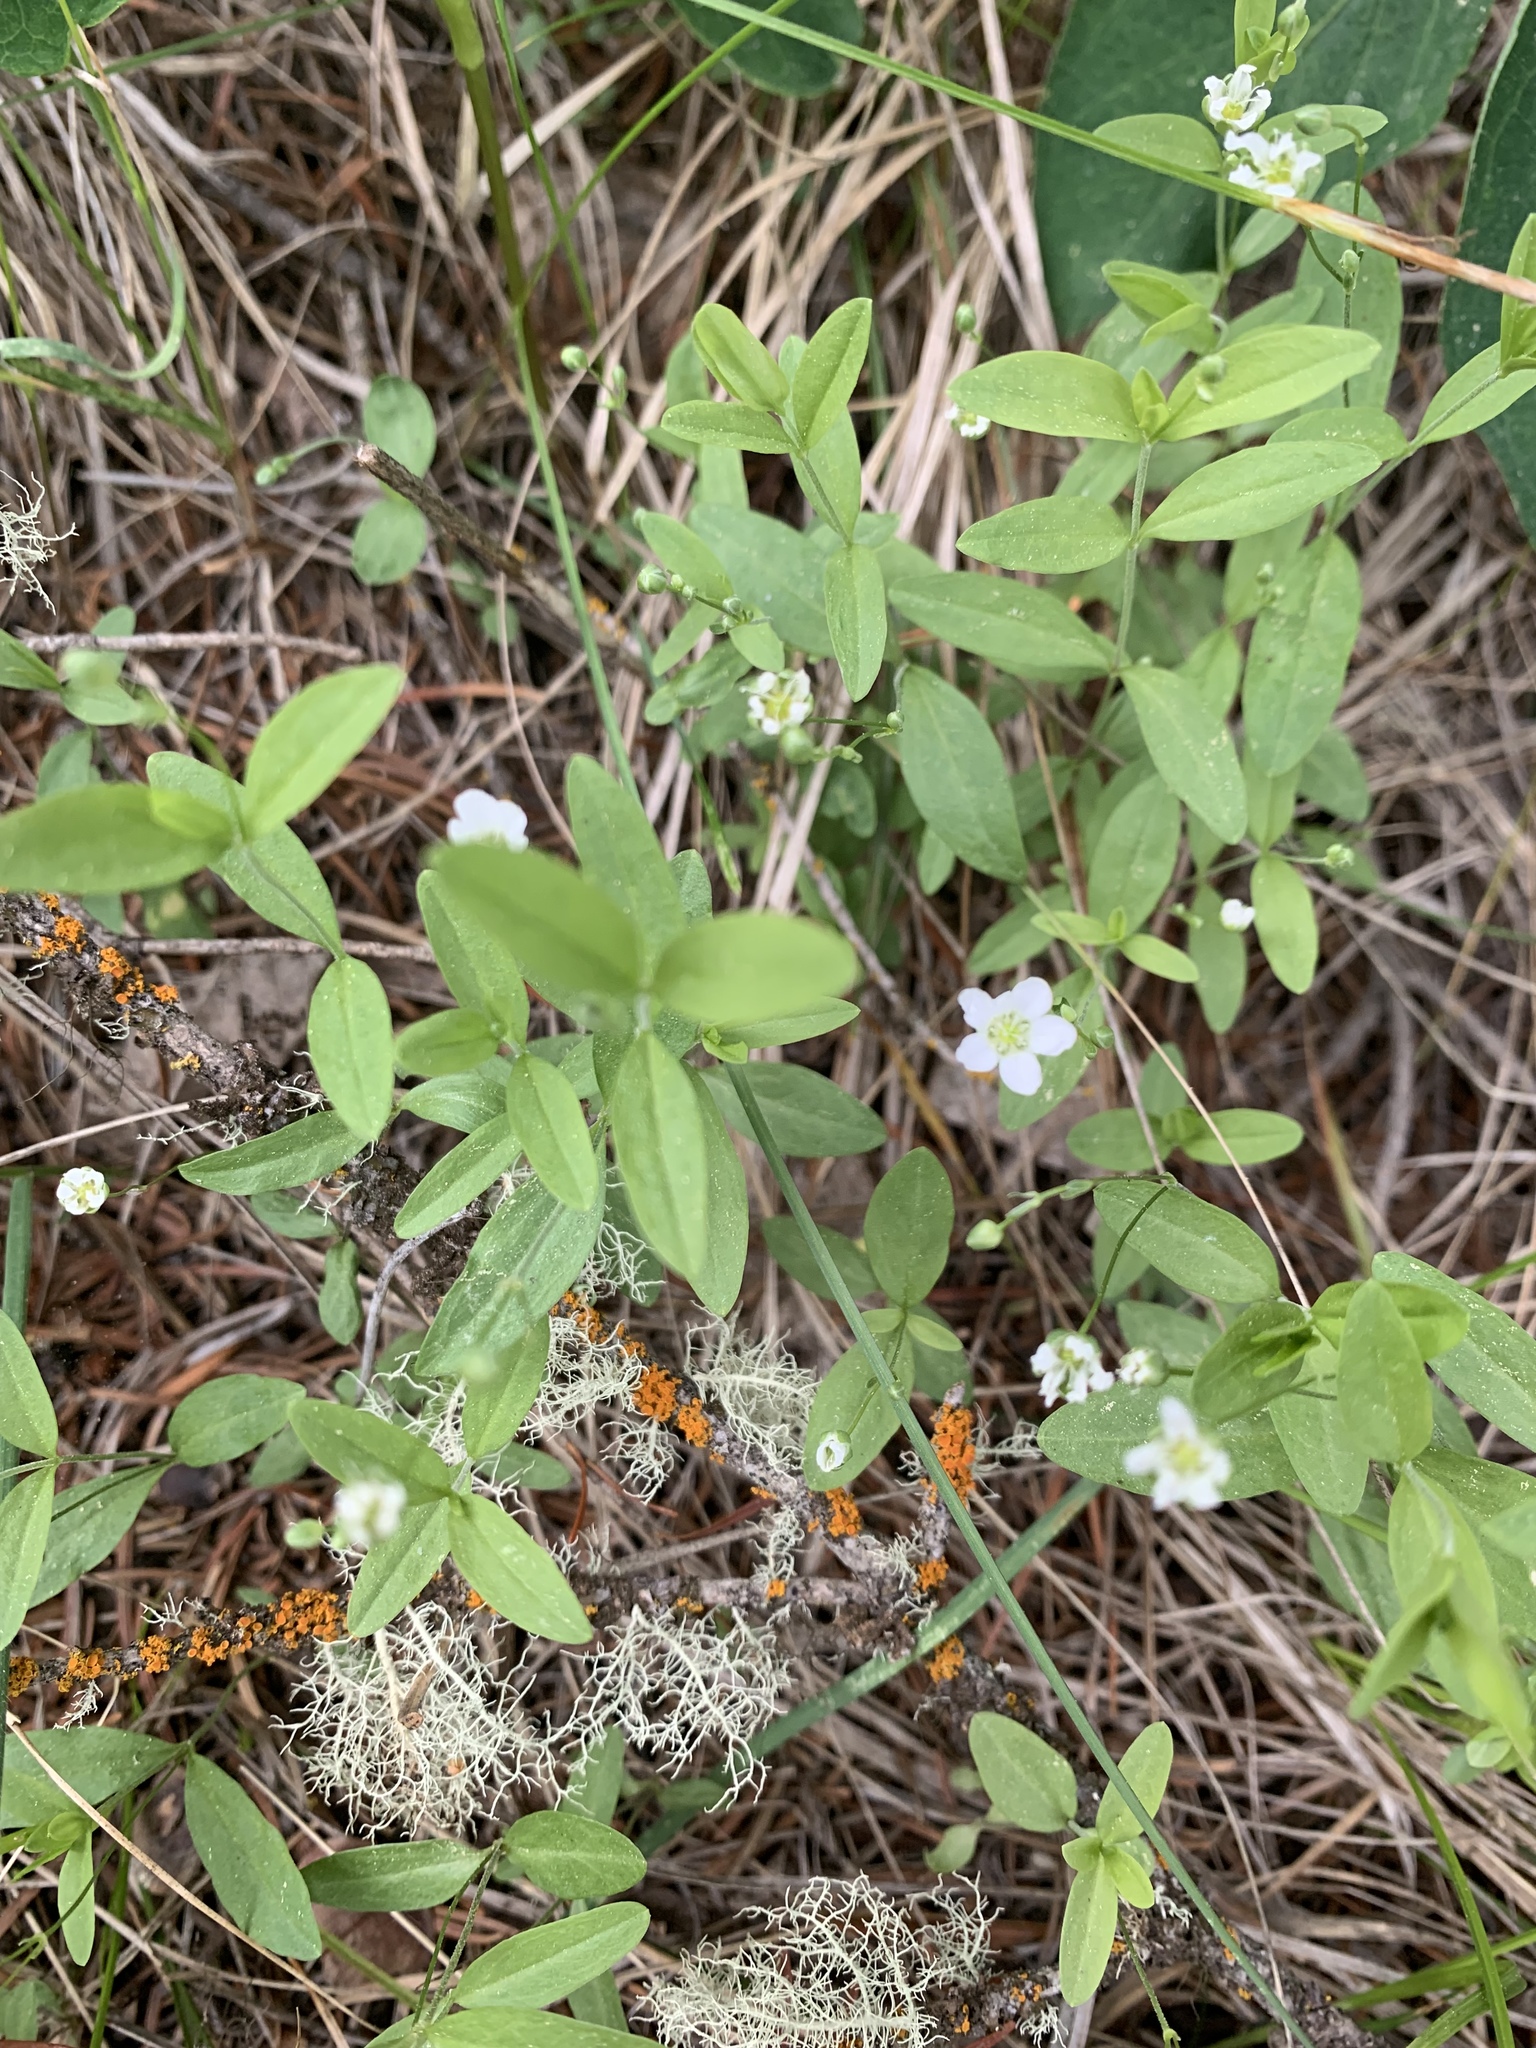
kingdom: Plantae
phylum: Tracheophyta
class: Magnoliopsida
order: Caryophyllales
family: Caryophyllaceae
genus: Moehringia
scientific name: Moehringia lateriflora
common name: Blunt-leaved sandwort
